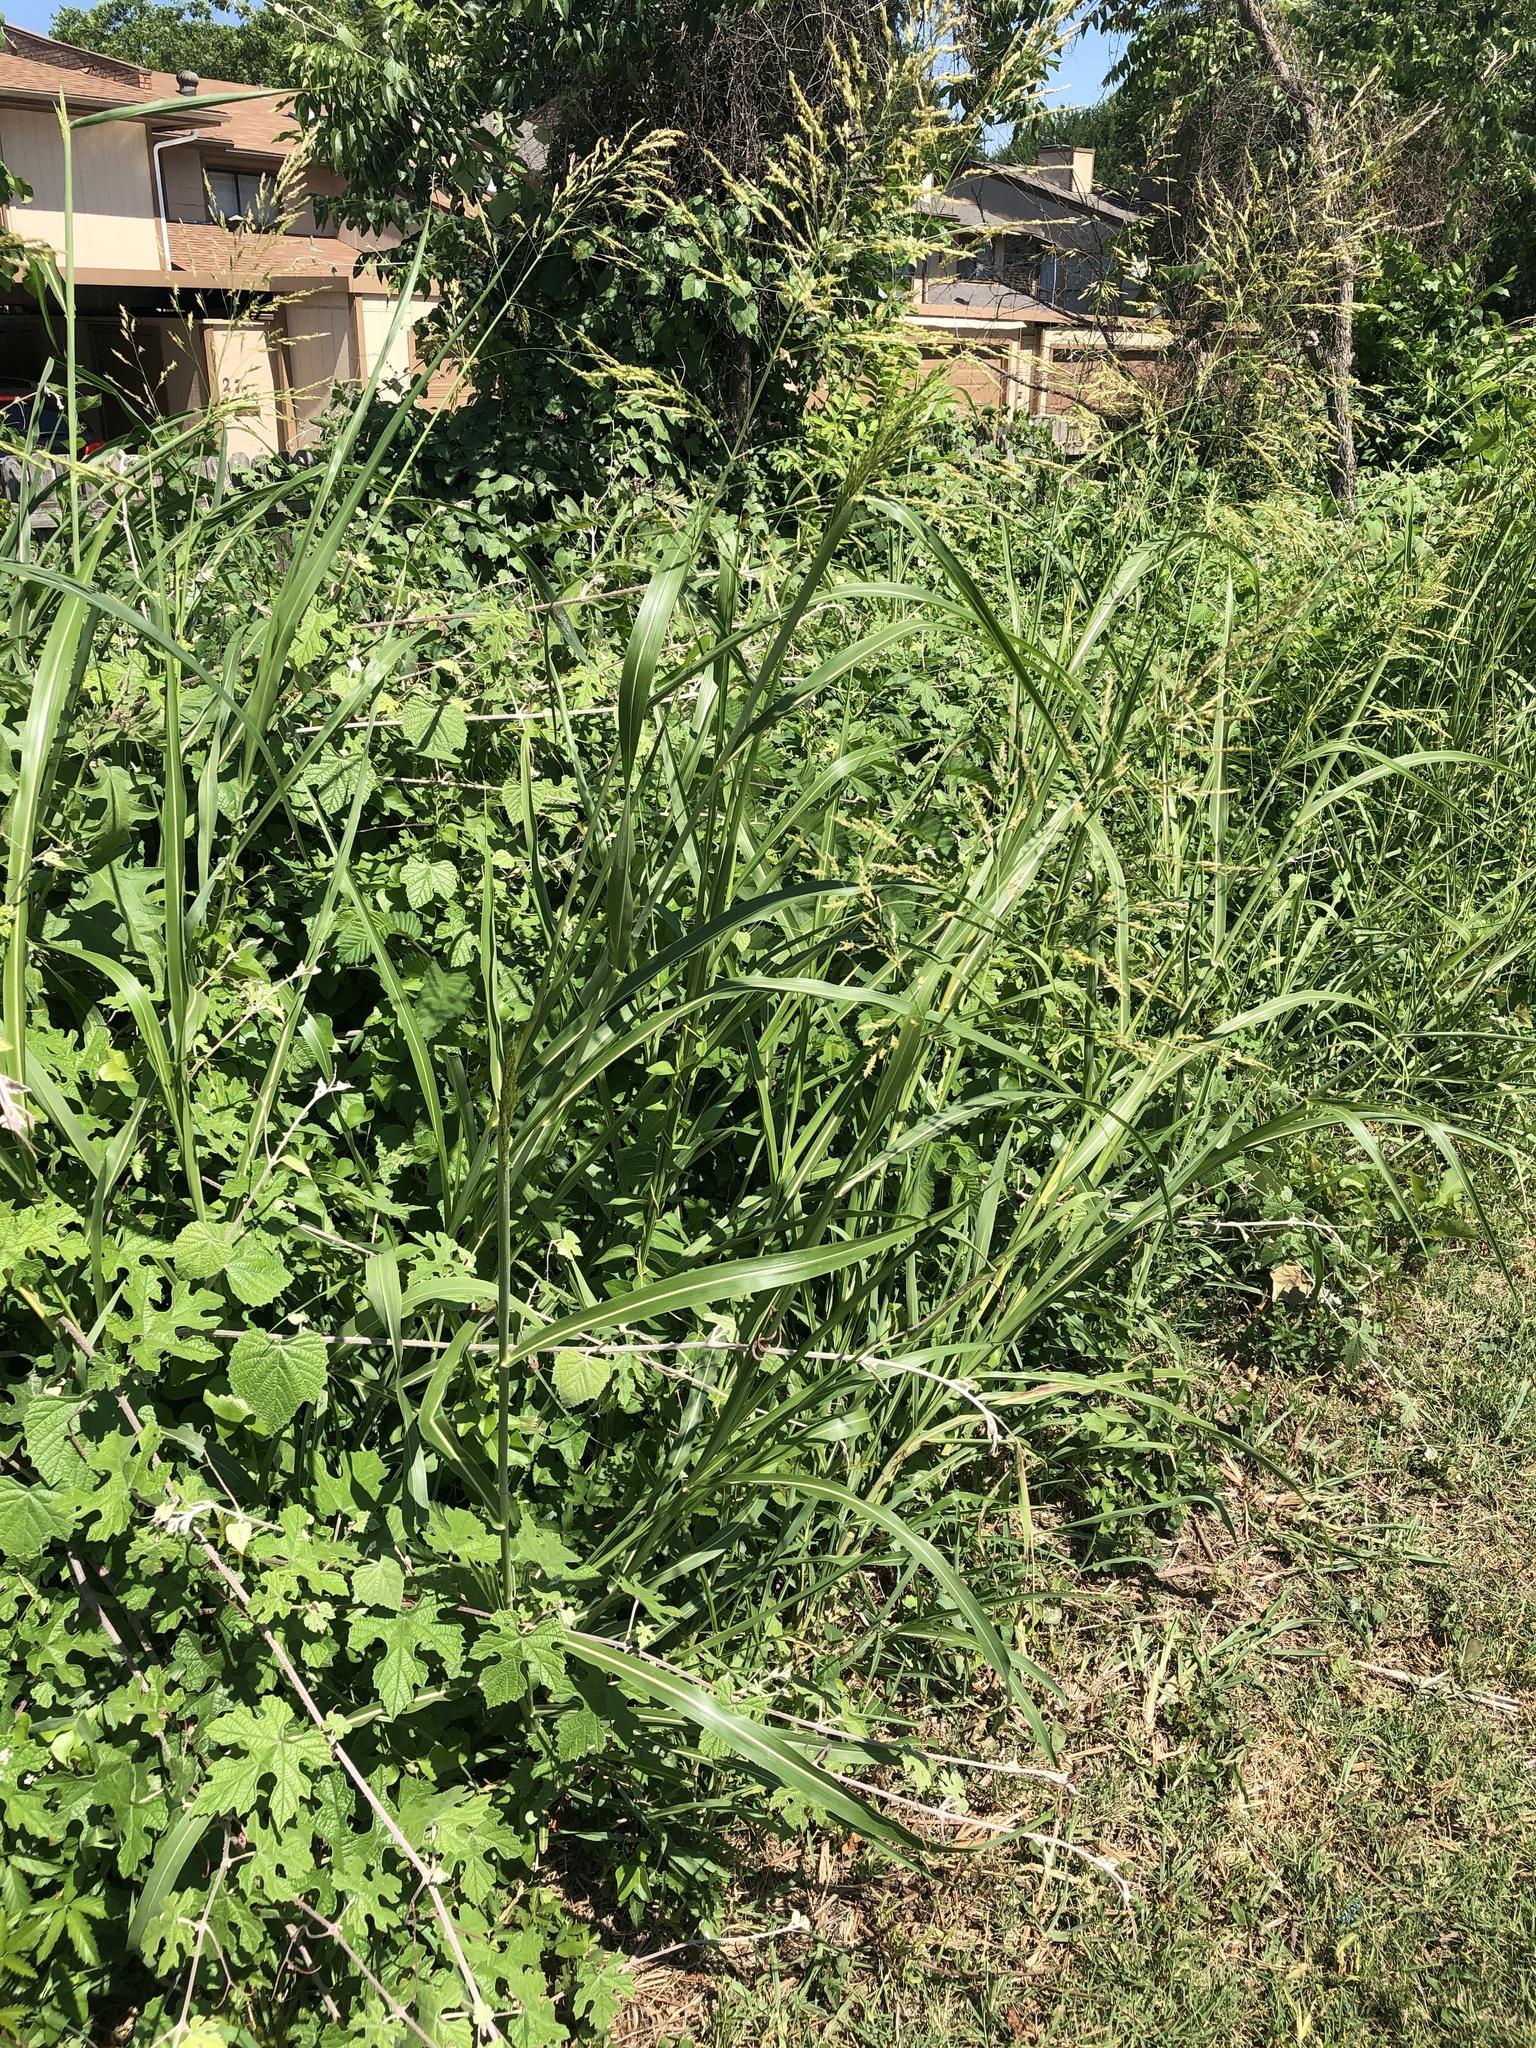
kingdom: Plantae
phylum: Tracheophyta
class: Liliopsida
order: Poales
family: Poaceae
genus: Sorghum
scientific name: Sorghum halepense
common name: Johnson-grass
